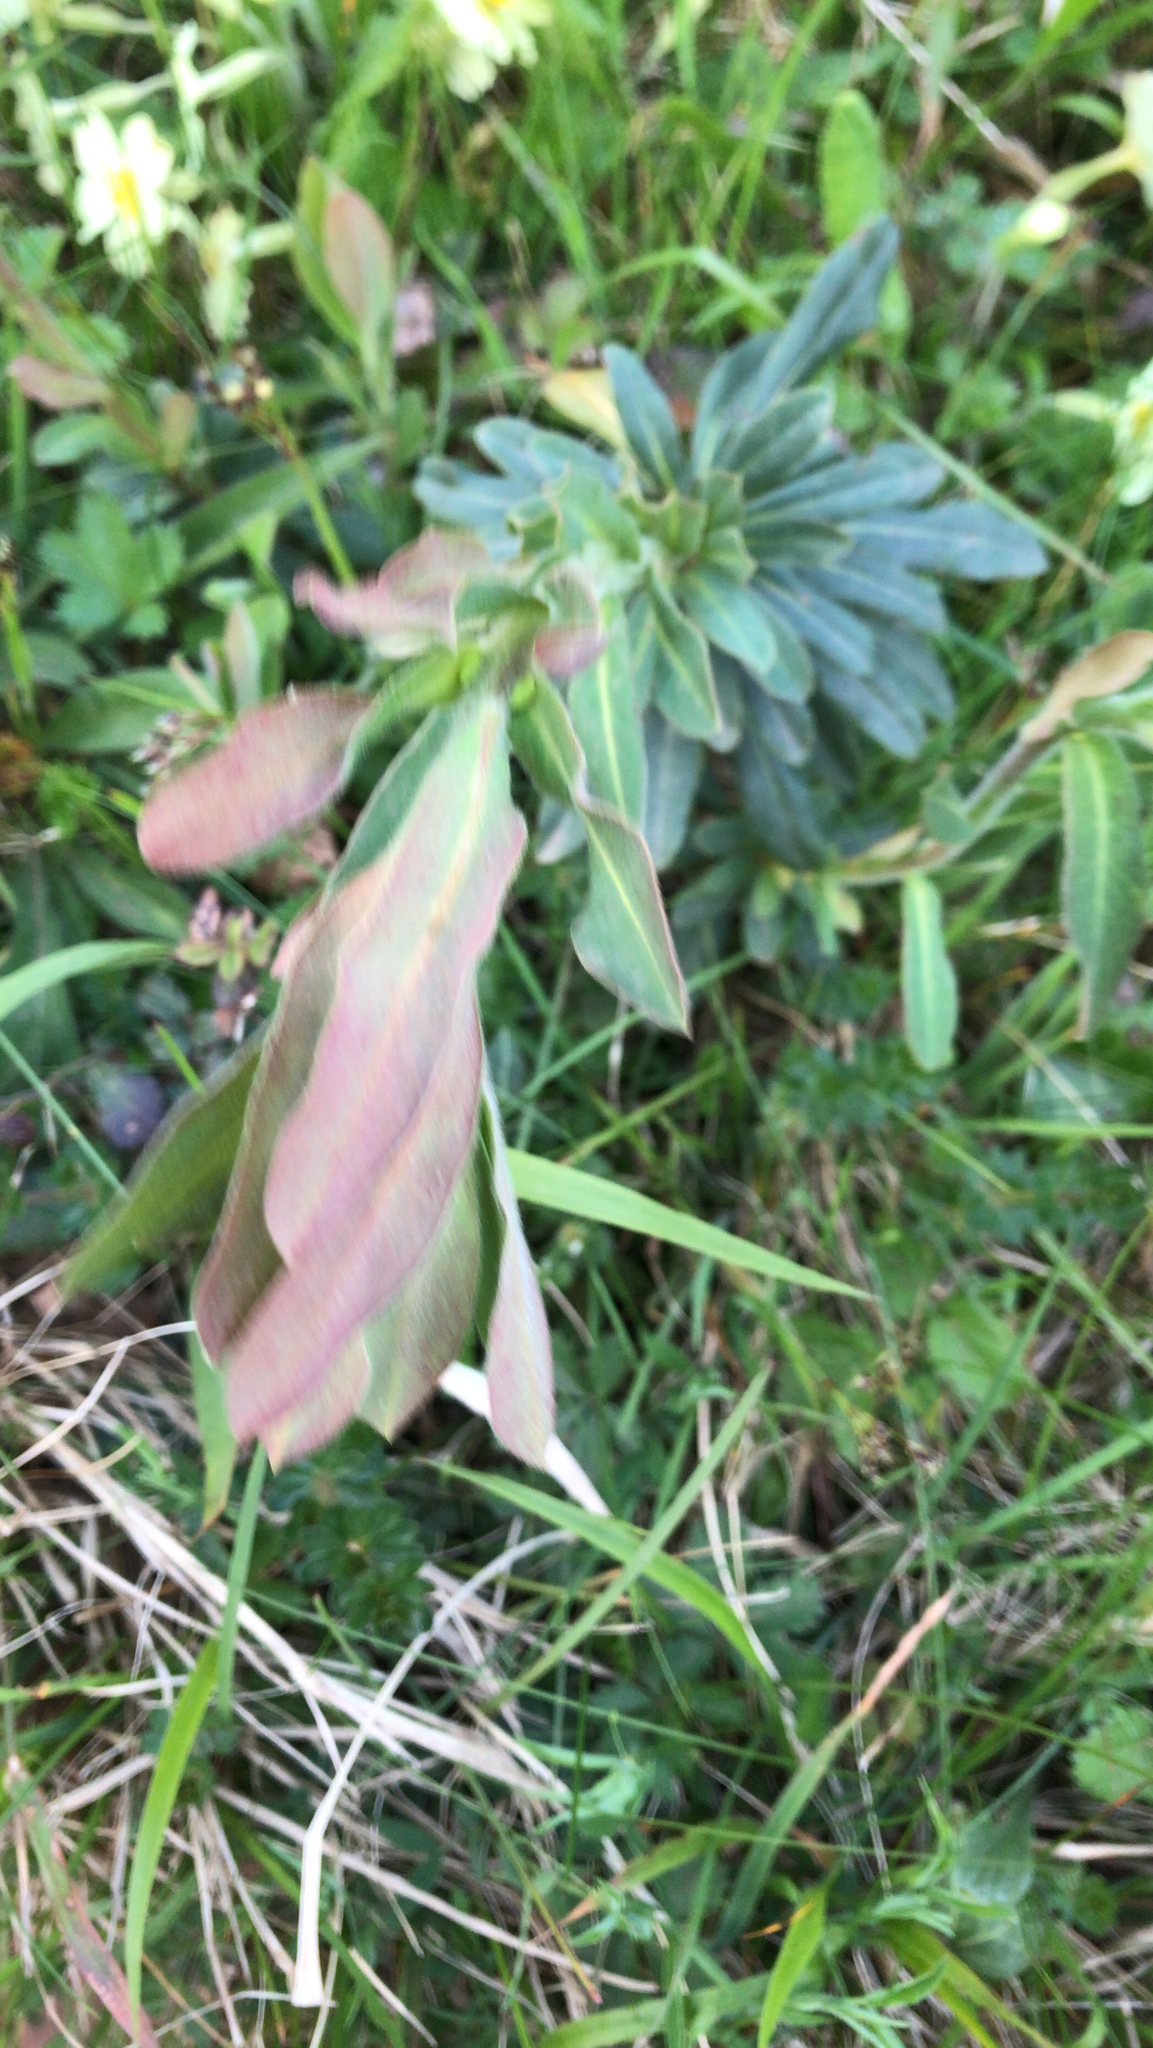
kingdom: Plantae
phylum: Tracheophyta
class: Magnoliopsida
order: Malpighiales
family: Euphorbiaceae
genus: Euphorbia
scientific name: Euphorbia amygdaloides
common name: Wood spurge
